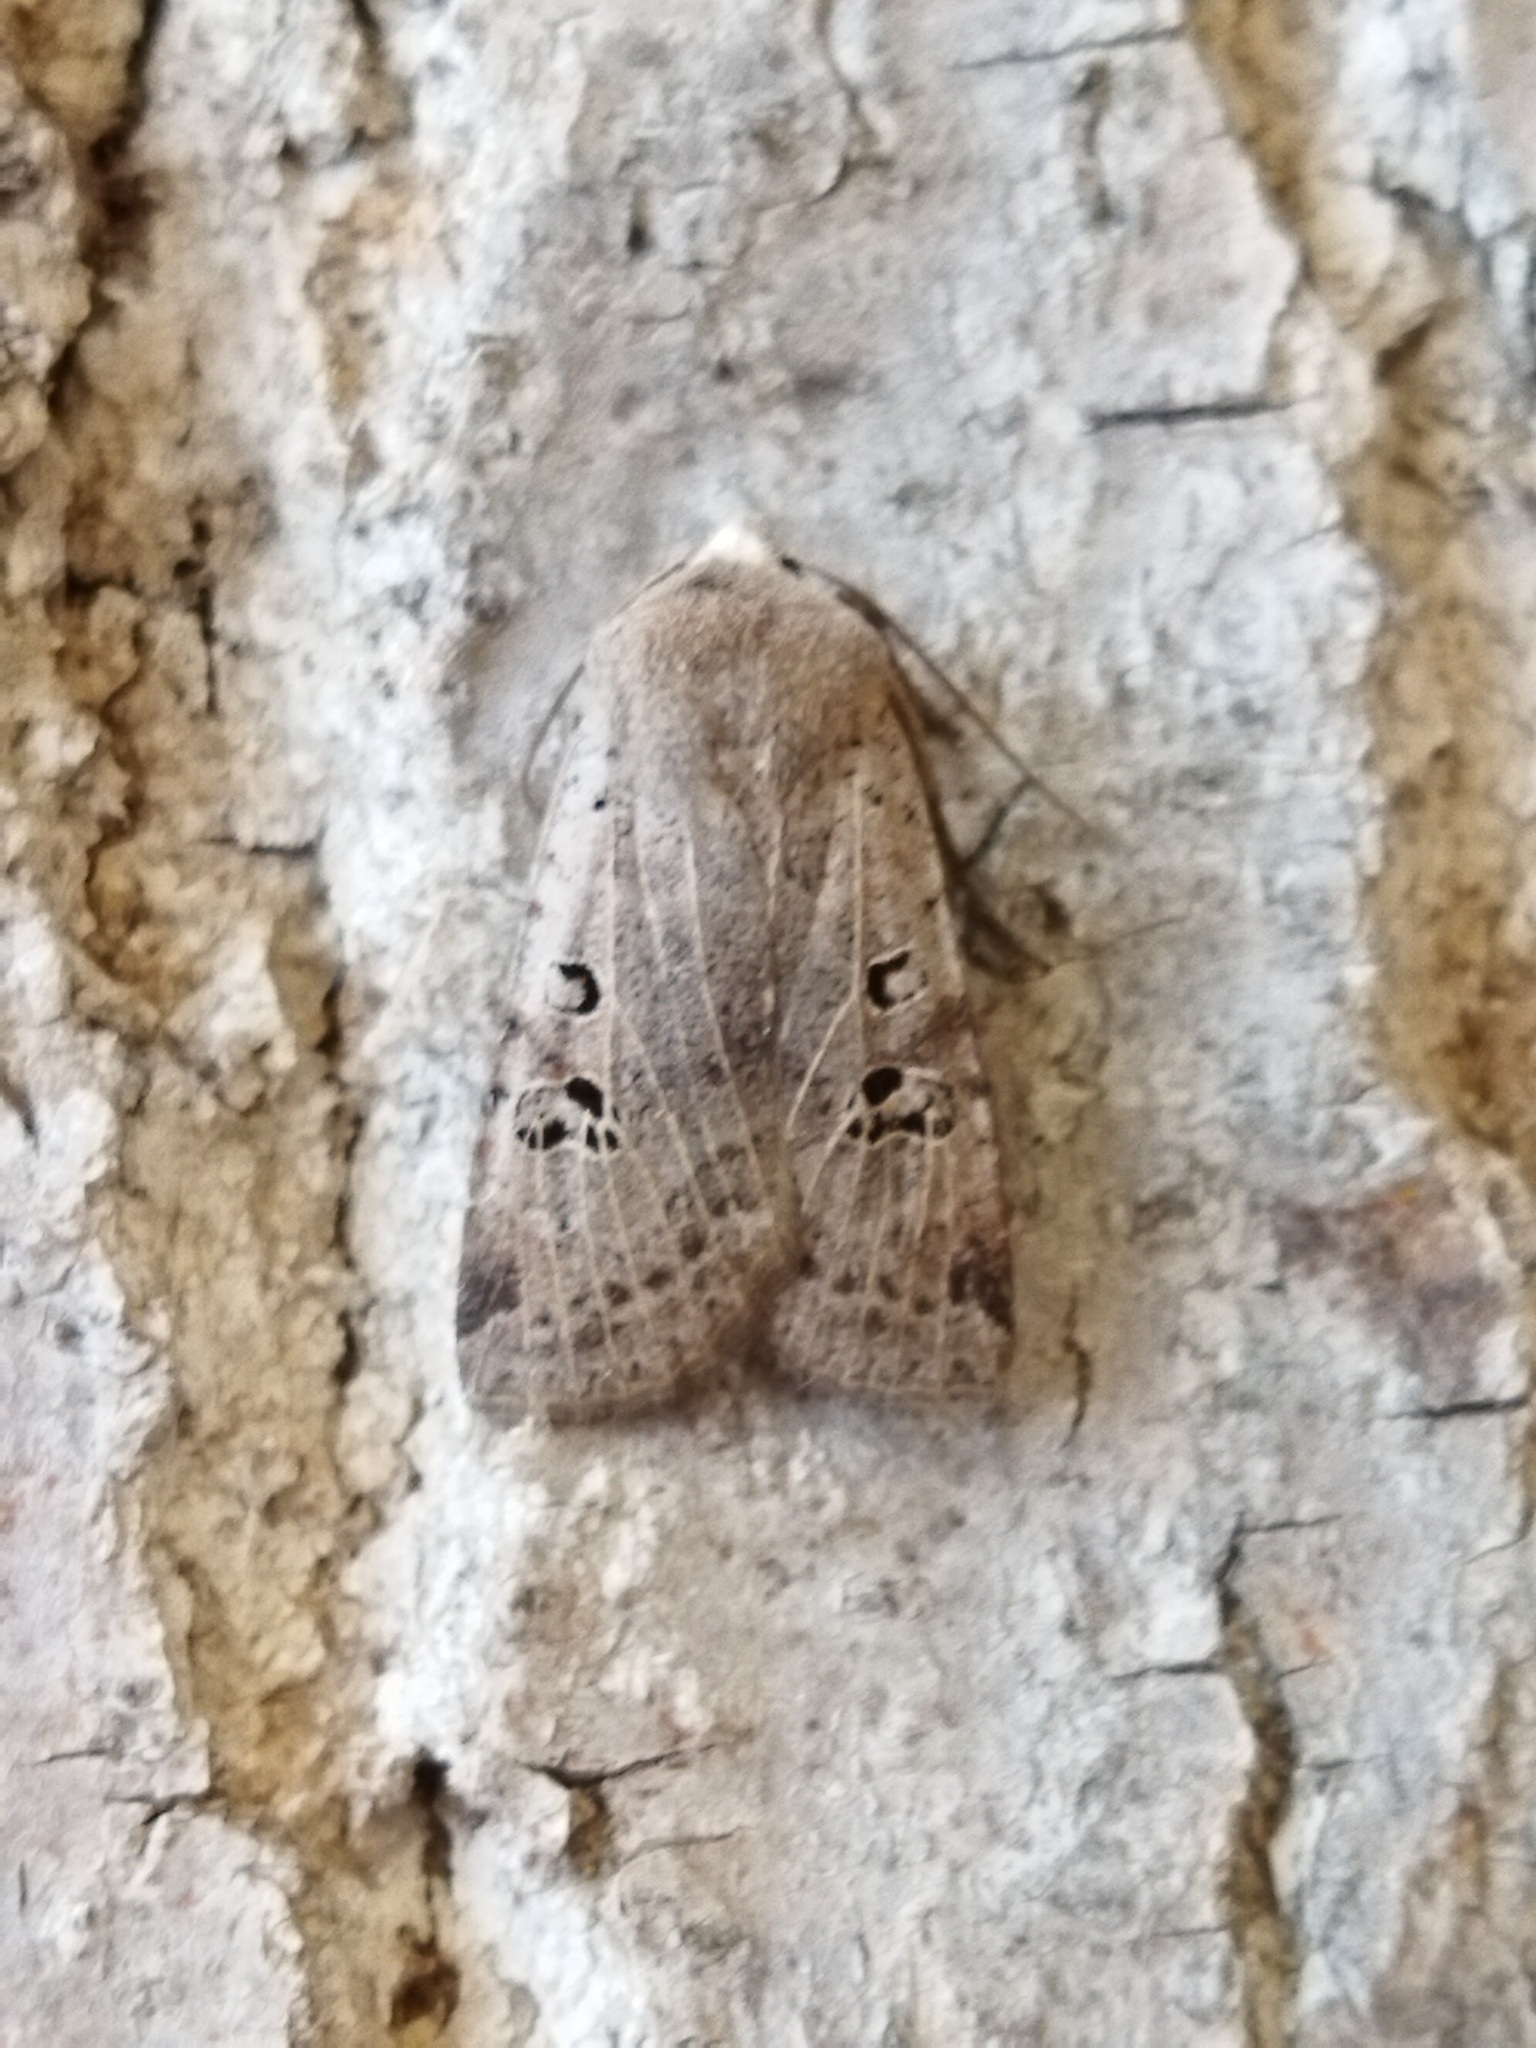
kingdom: Animalia
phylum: Arthropoda
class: Insecta
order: Lepidoptera
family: Noctuidae
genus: Conistra
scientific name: Conistra rubiginosa
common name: Black-spotted chestnut
